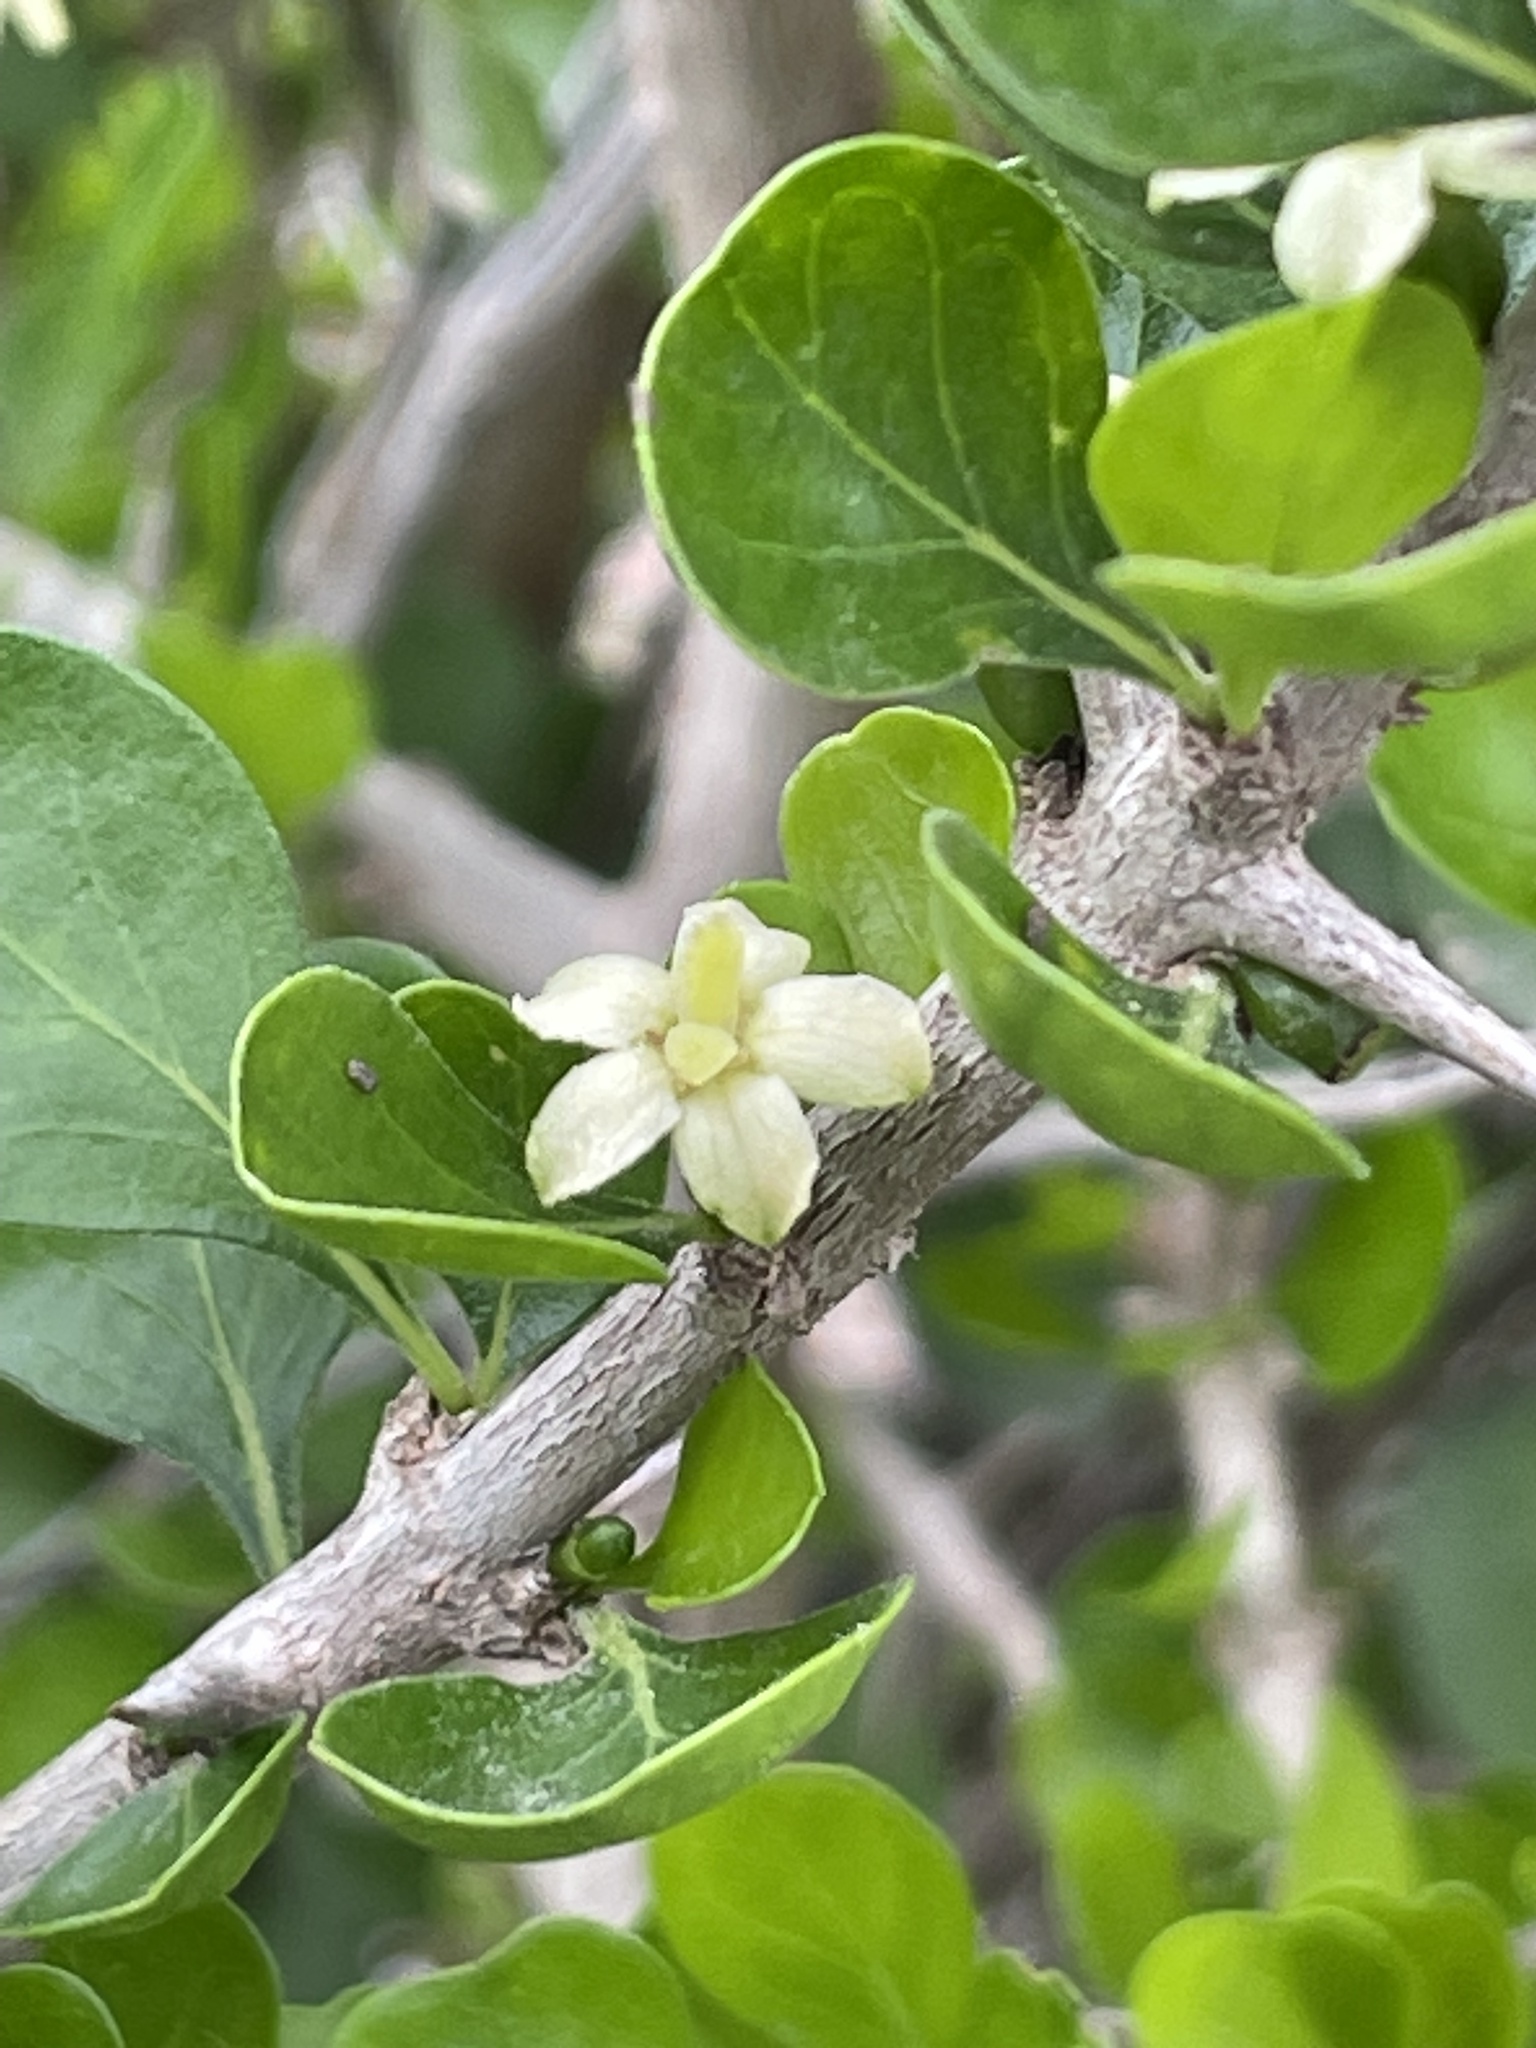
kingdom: Plantae
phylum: Tracheophyta
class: Magnoliopsida
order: Gentianales
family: Rubiaceae
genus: Randia
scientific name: Randia obcordata
